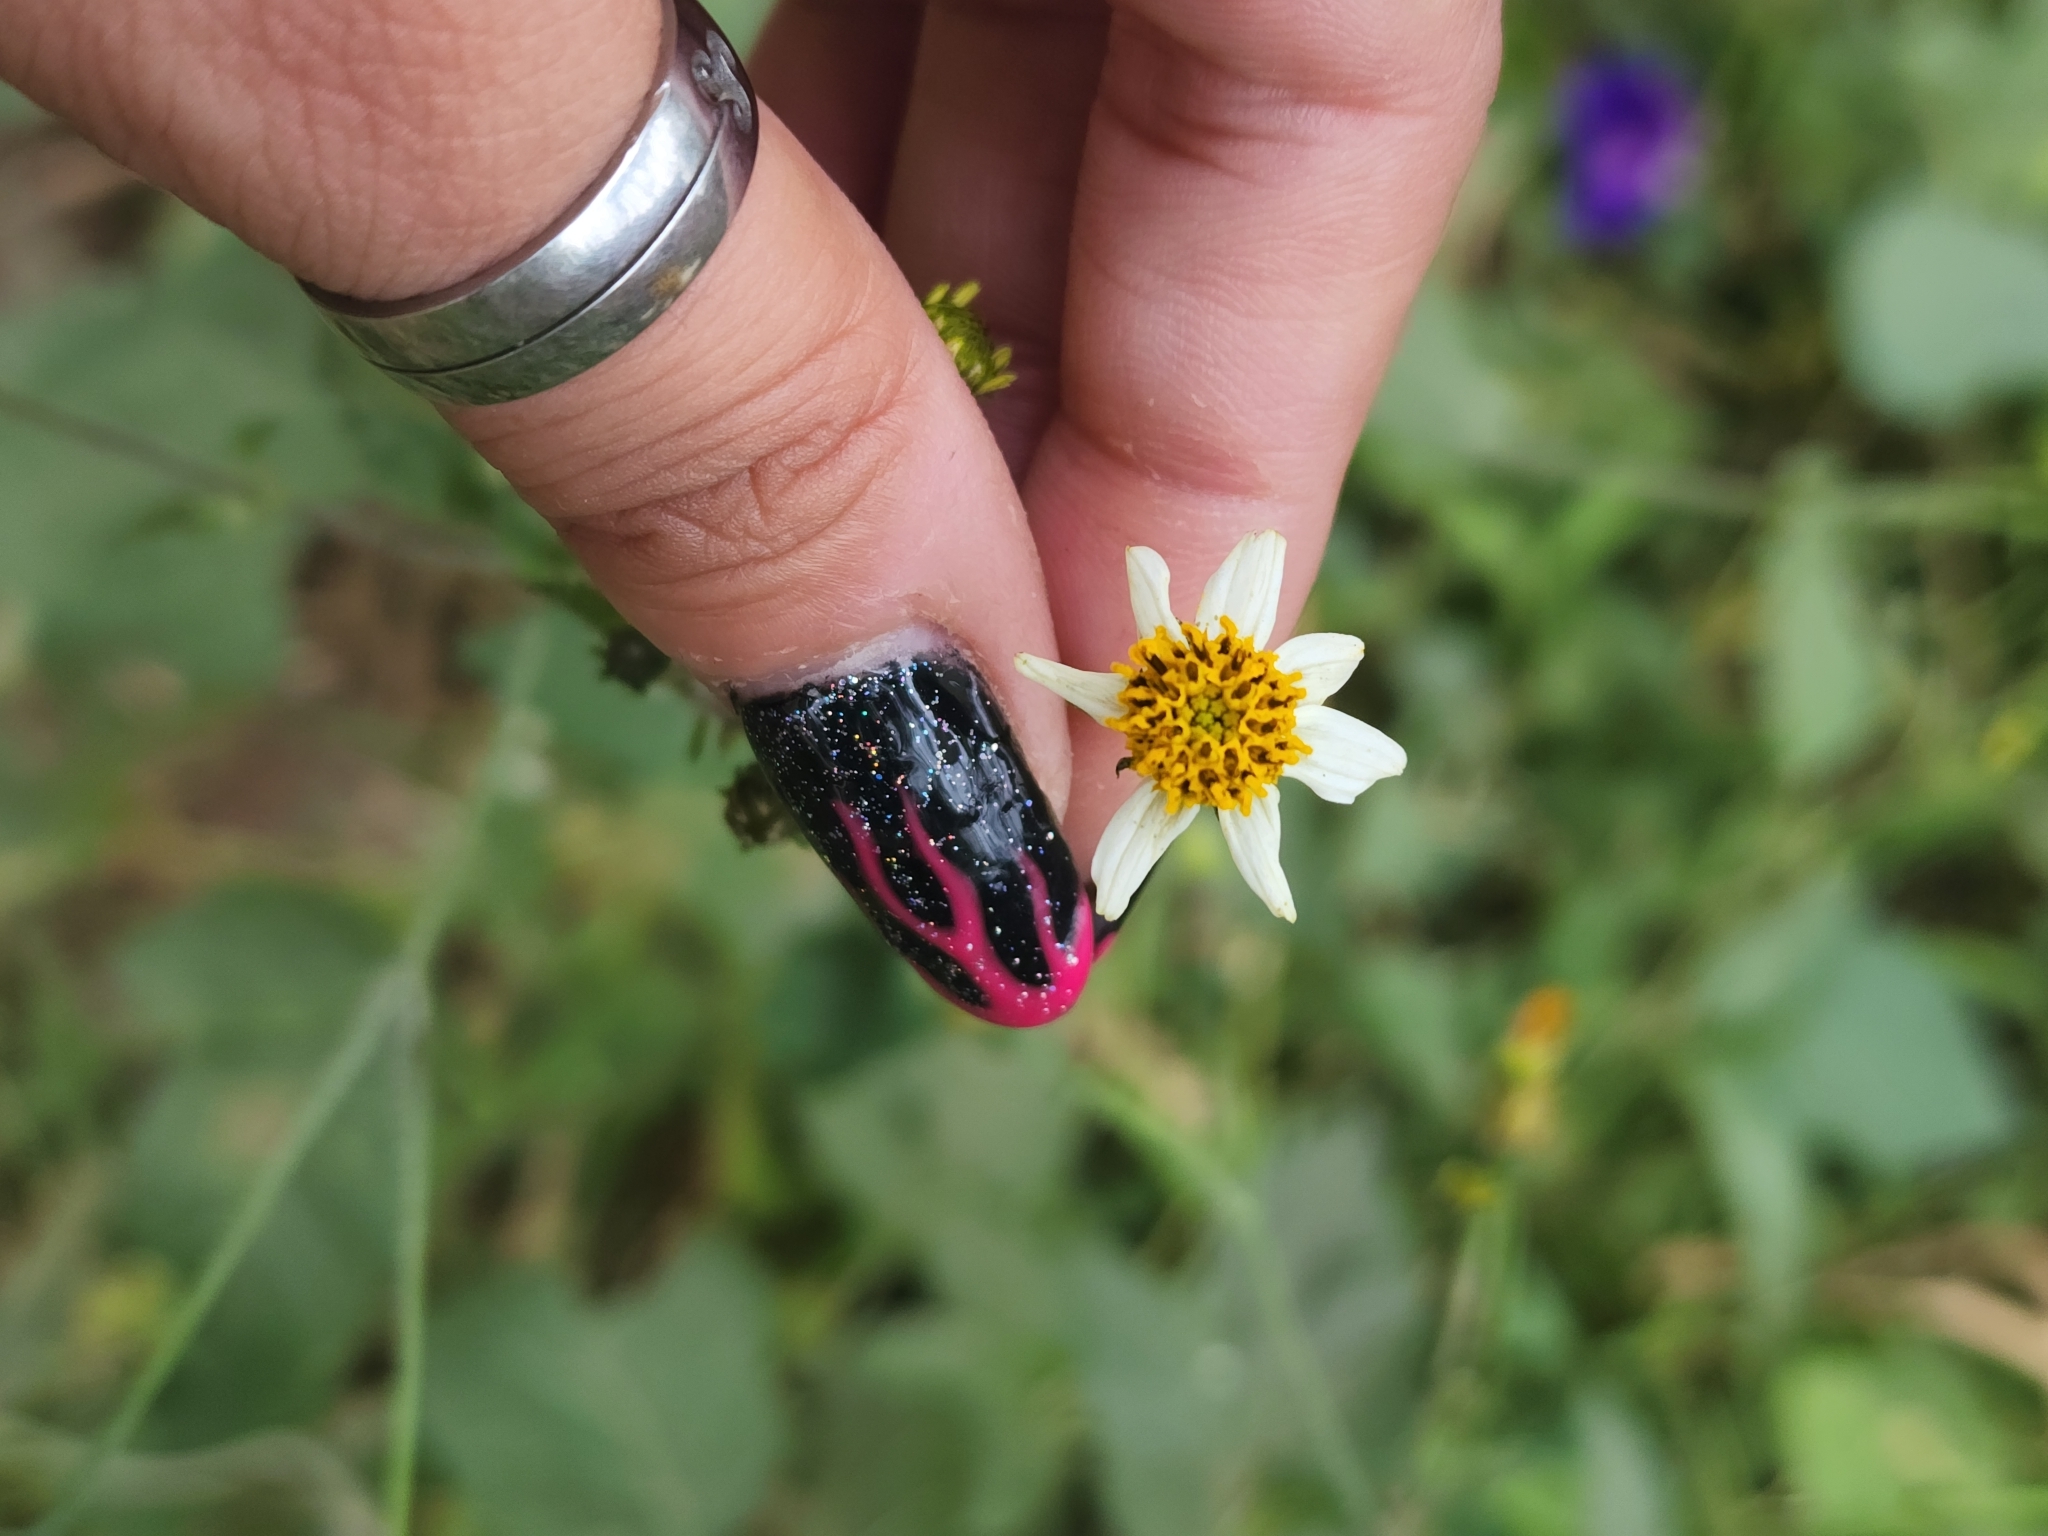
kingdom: Plantae
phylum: Tracheophyta
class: Magnoliopsida
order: Asterales
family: Asteraceae
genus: Bidens
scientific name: Bidens pilosa
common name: Black-jack
